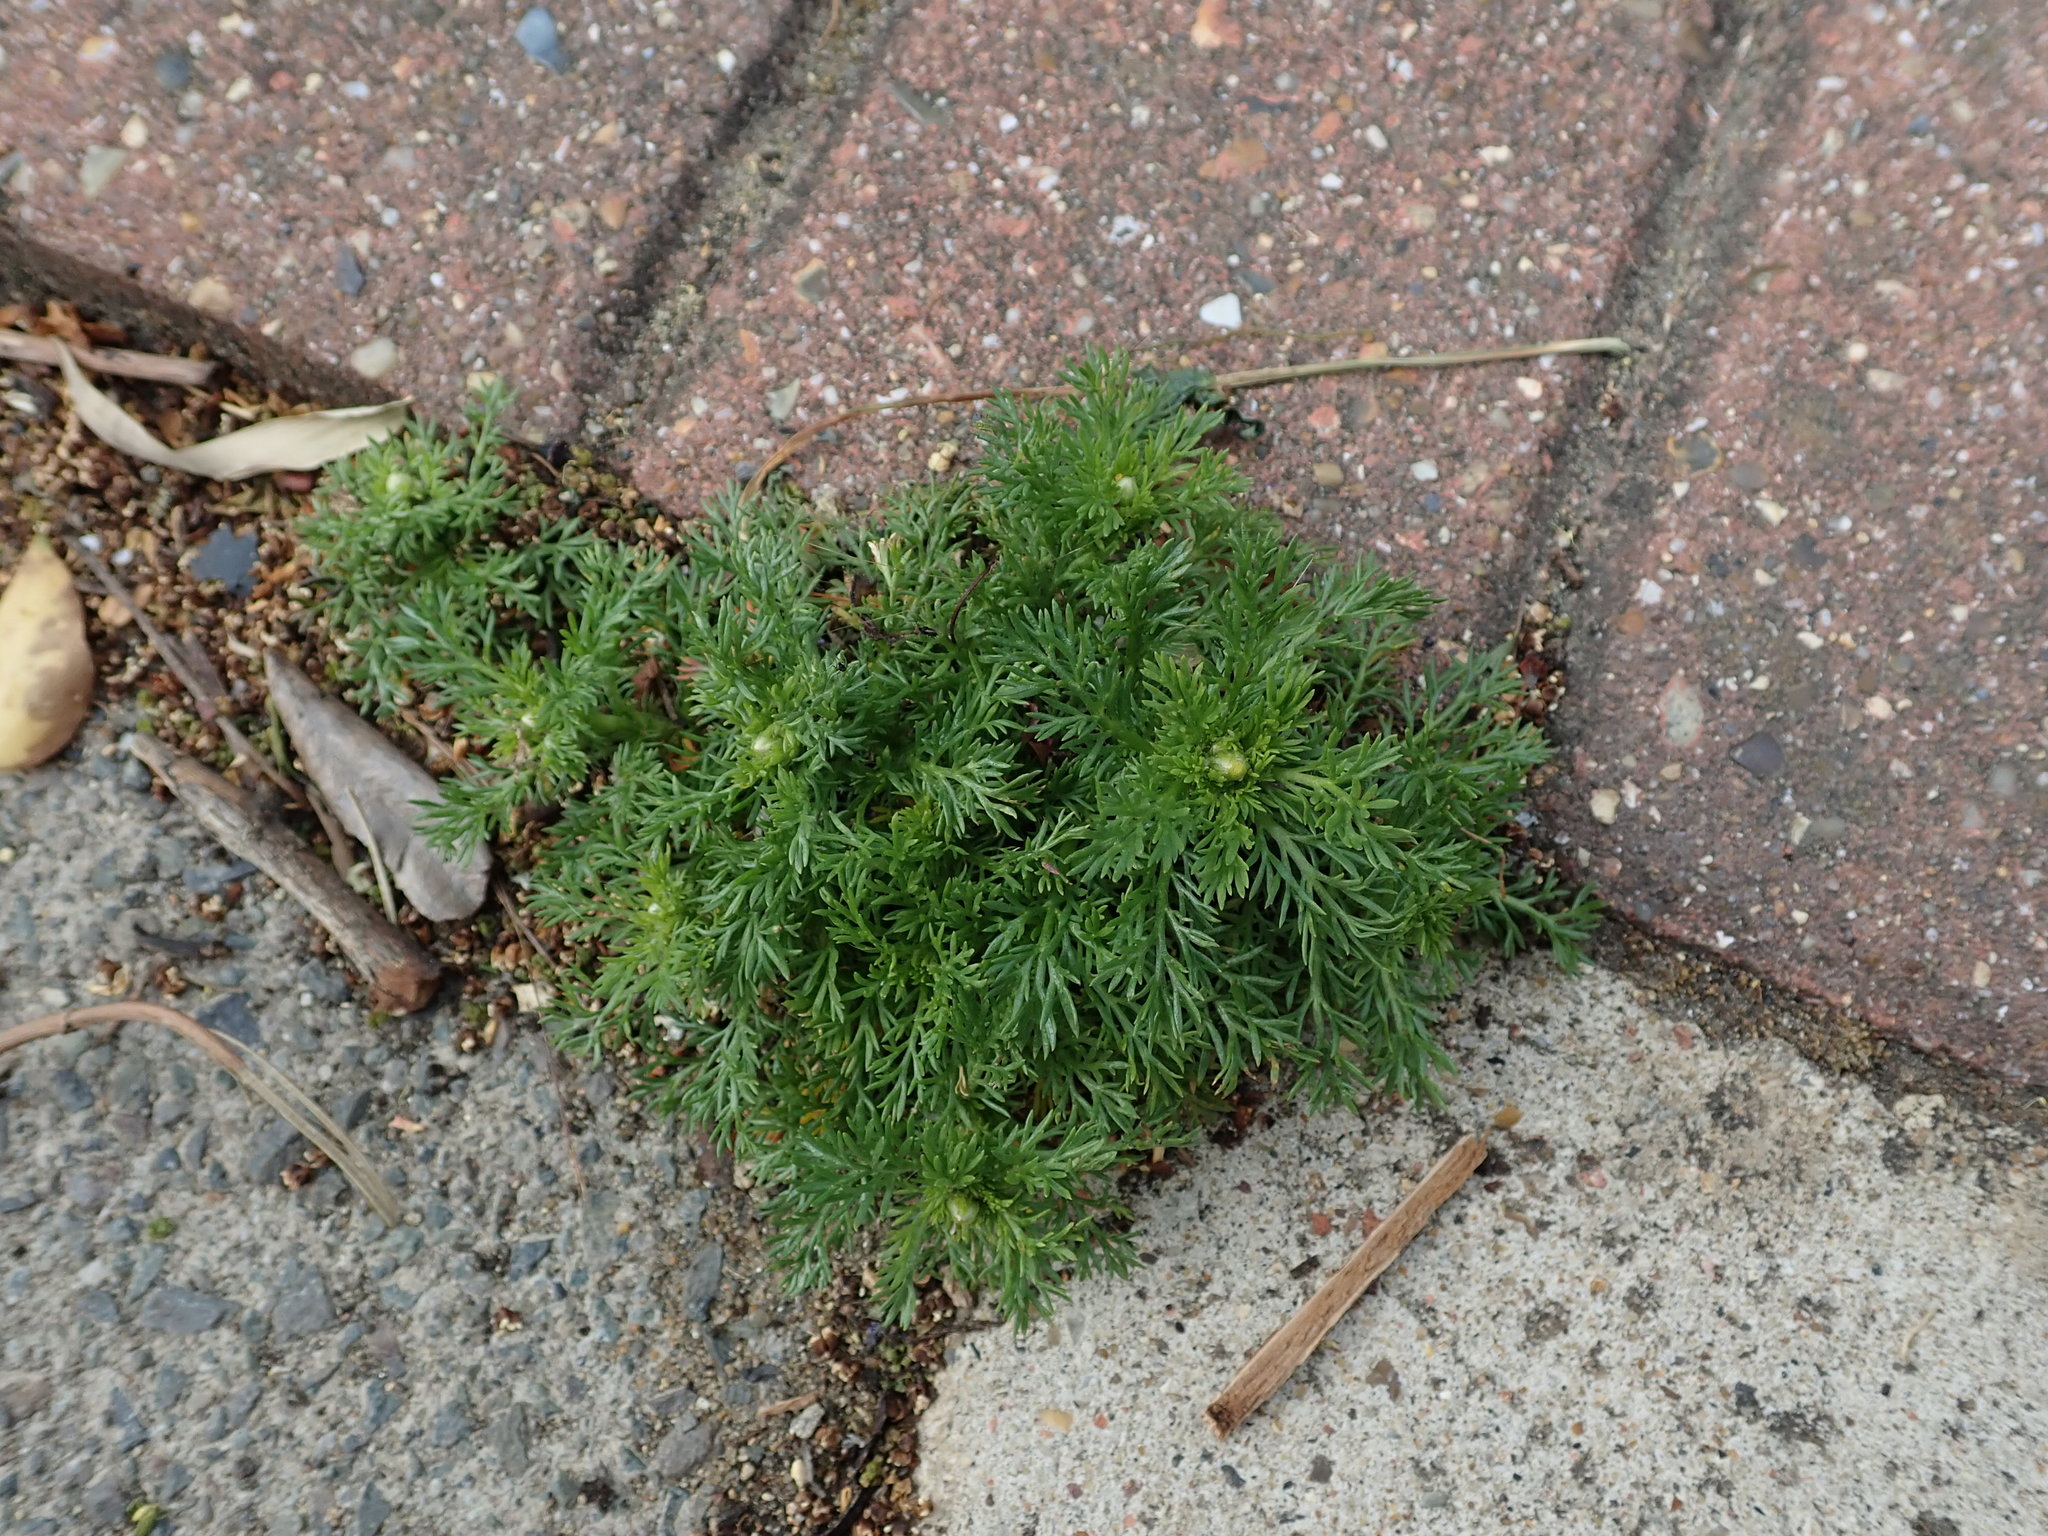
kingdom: Plantae
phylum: Tracheophyta
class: Magnoliopsida
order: Asterales
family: Asteraceae
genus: Matricaria
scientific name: Matricaria discoidea
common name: Disc mayweed
